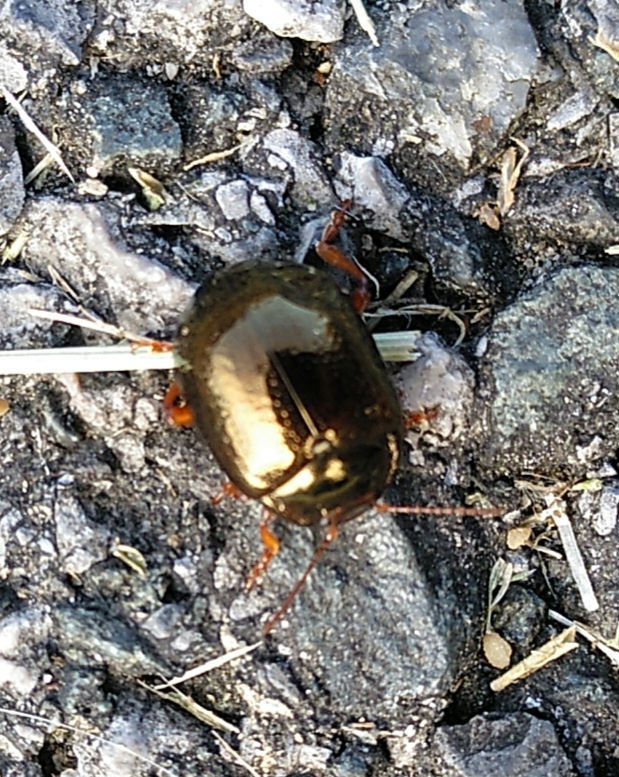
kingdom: Animalia
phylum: Arthropoda
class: Insecta
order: Coleoptera
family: Chrysomelidae
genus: Chrysolina
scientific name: Chrysolina bankii
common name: Leaf beetle
